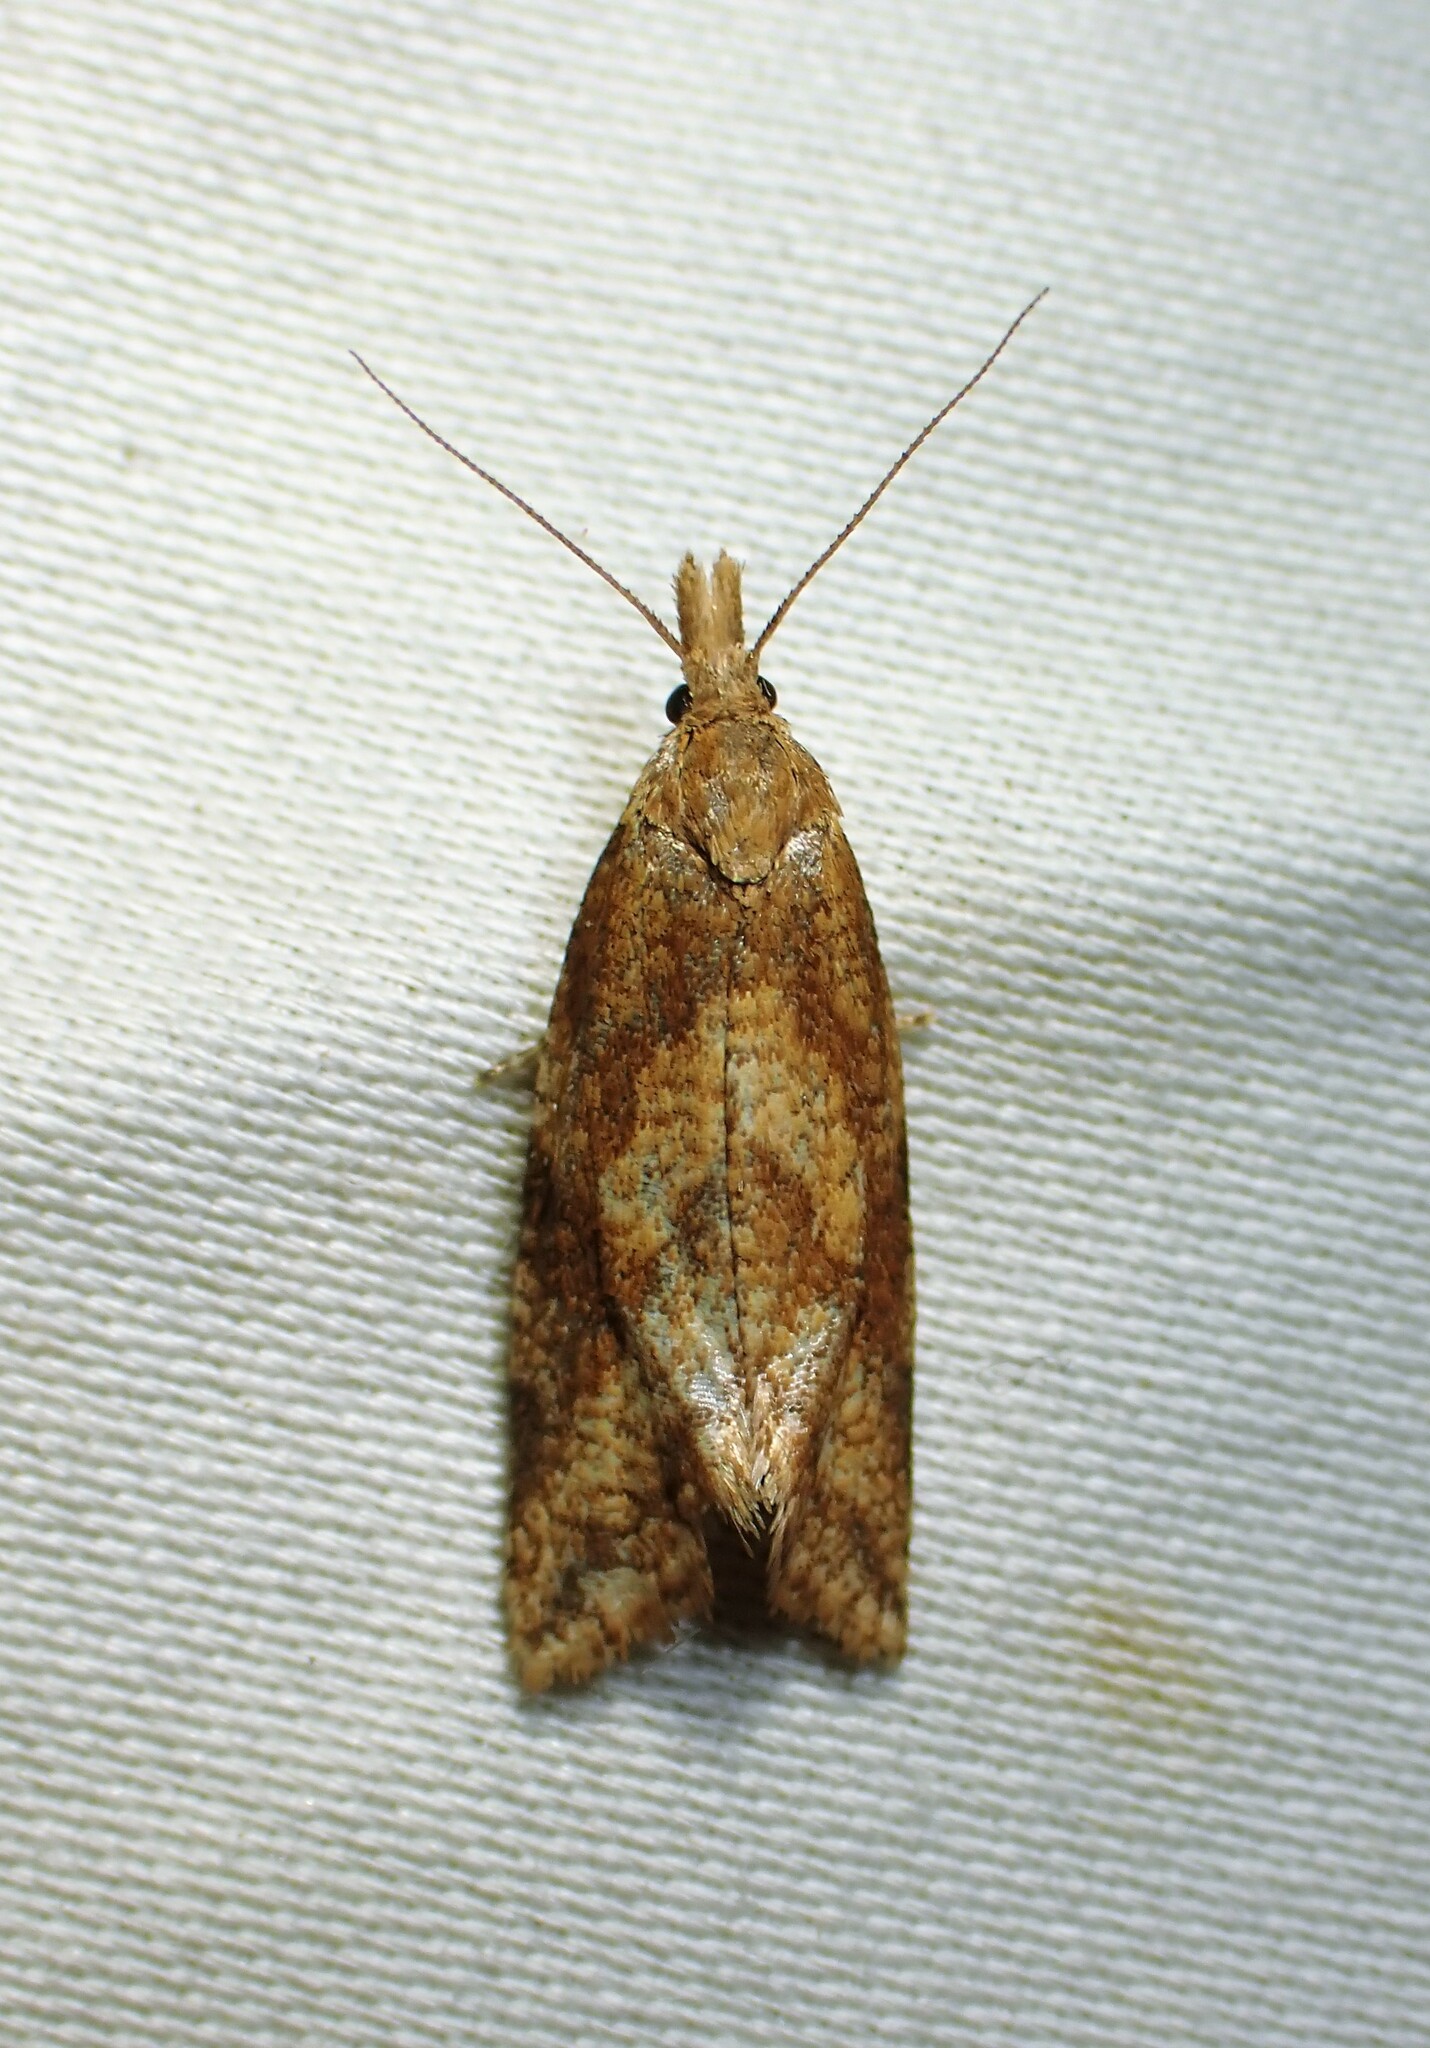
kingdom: Animalia
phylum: Arthropoda
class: Insecta
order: Lepidoptera
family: Tortricidae
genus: Aethes
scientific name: Aethes biscana
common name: Reddish aethes
